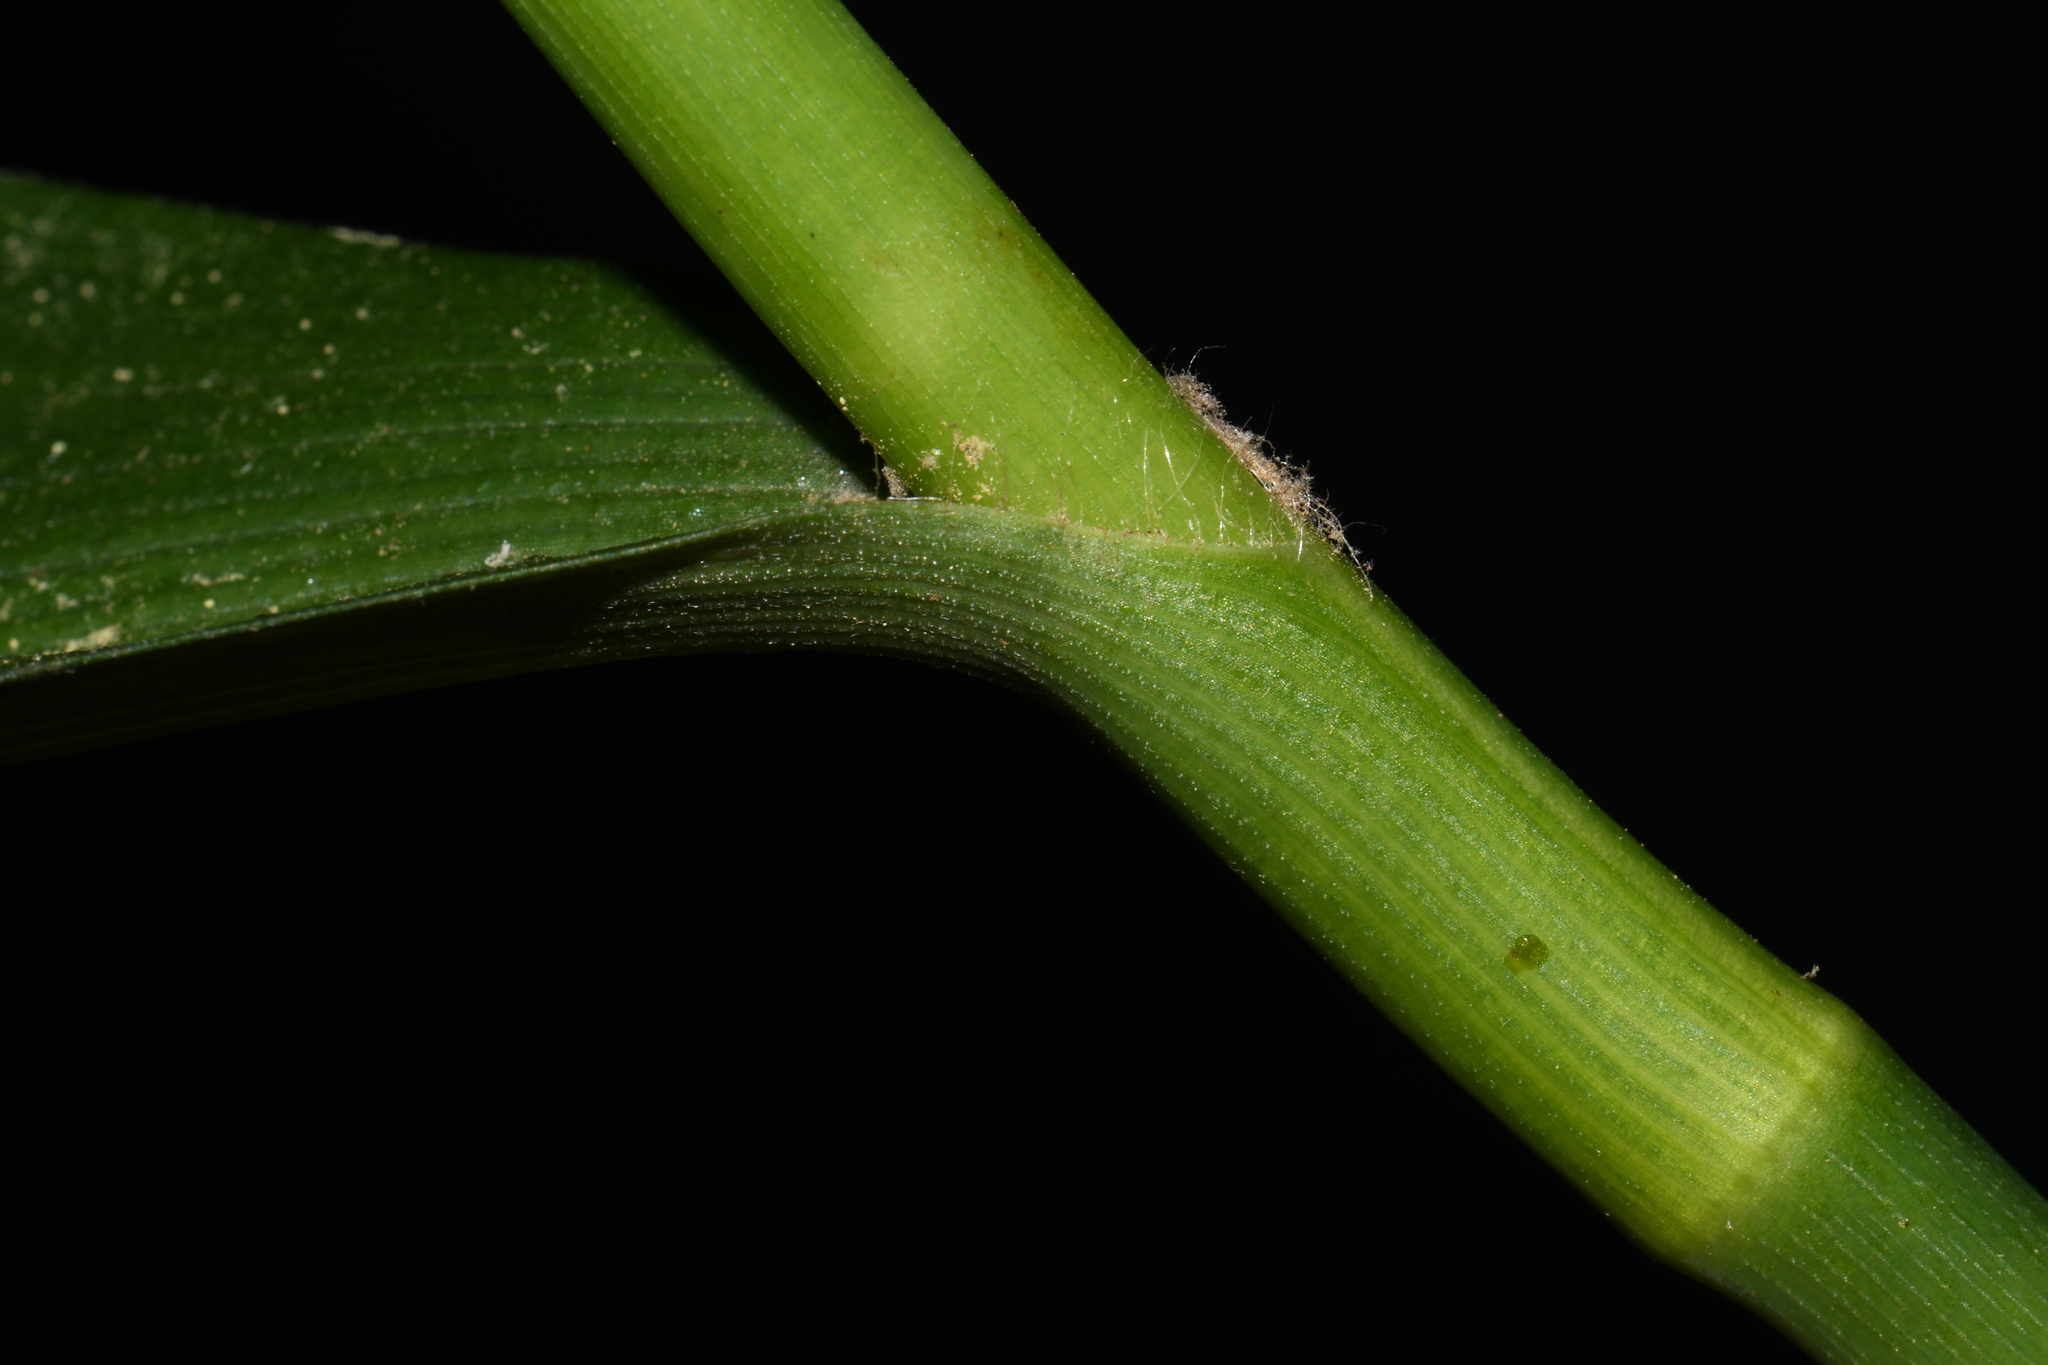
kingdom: Plantae
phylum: Tracheophyta
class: Liliopsida
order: Commelinales
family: Commelinaceae
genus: Tradescantia
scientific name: Tradescantia subaspera
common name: Wide-leaf spiderwort
